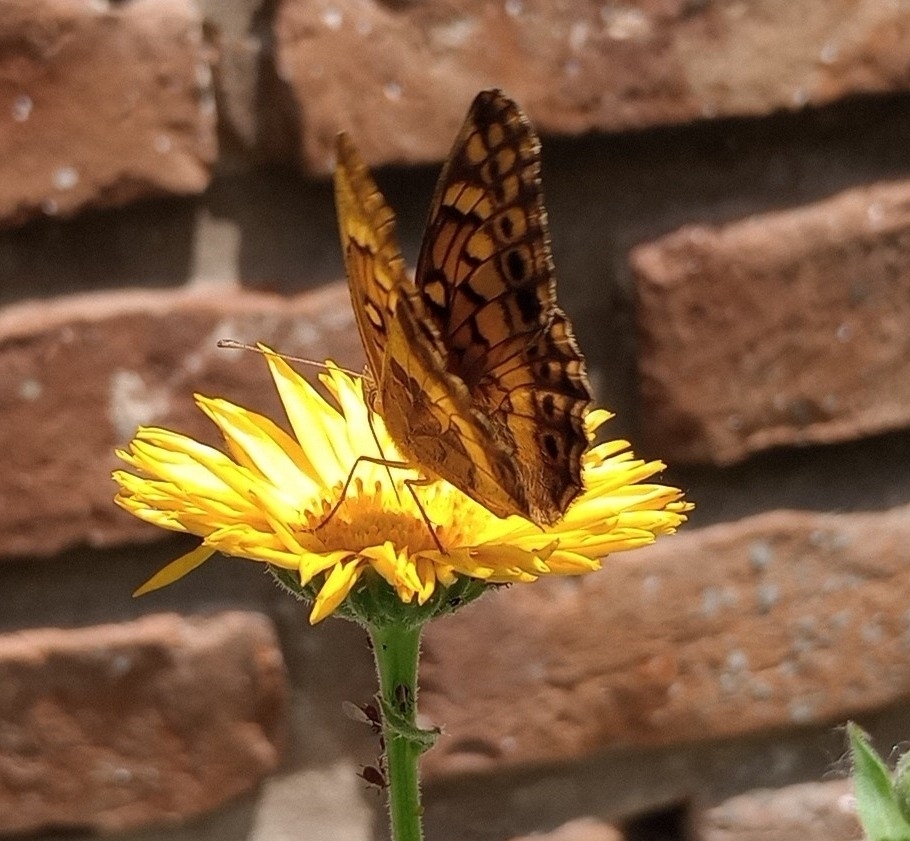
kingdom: Animalia
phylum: Arthropoda
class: Insecta
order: Lepidoptera
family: Nymphalidae
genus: Euptoieta
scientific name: Euptoieta hortensia
